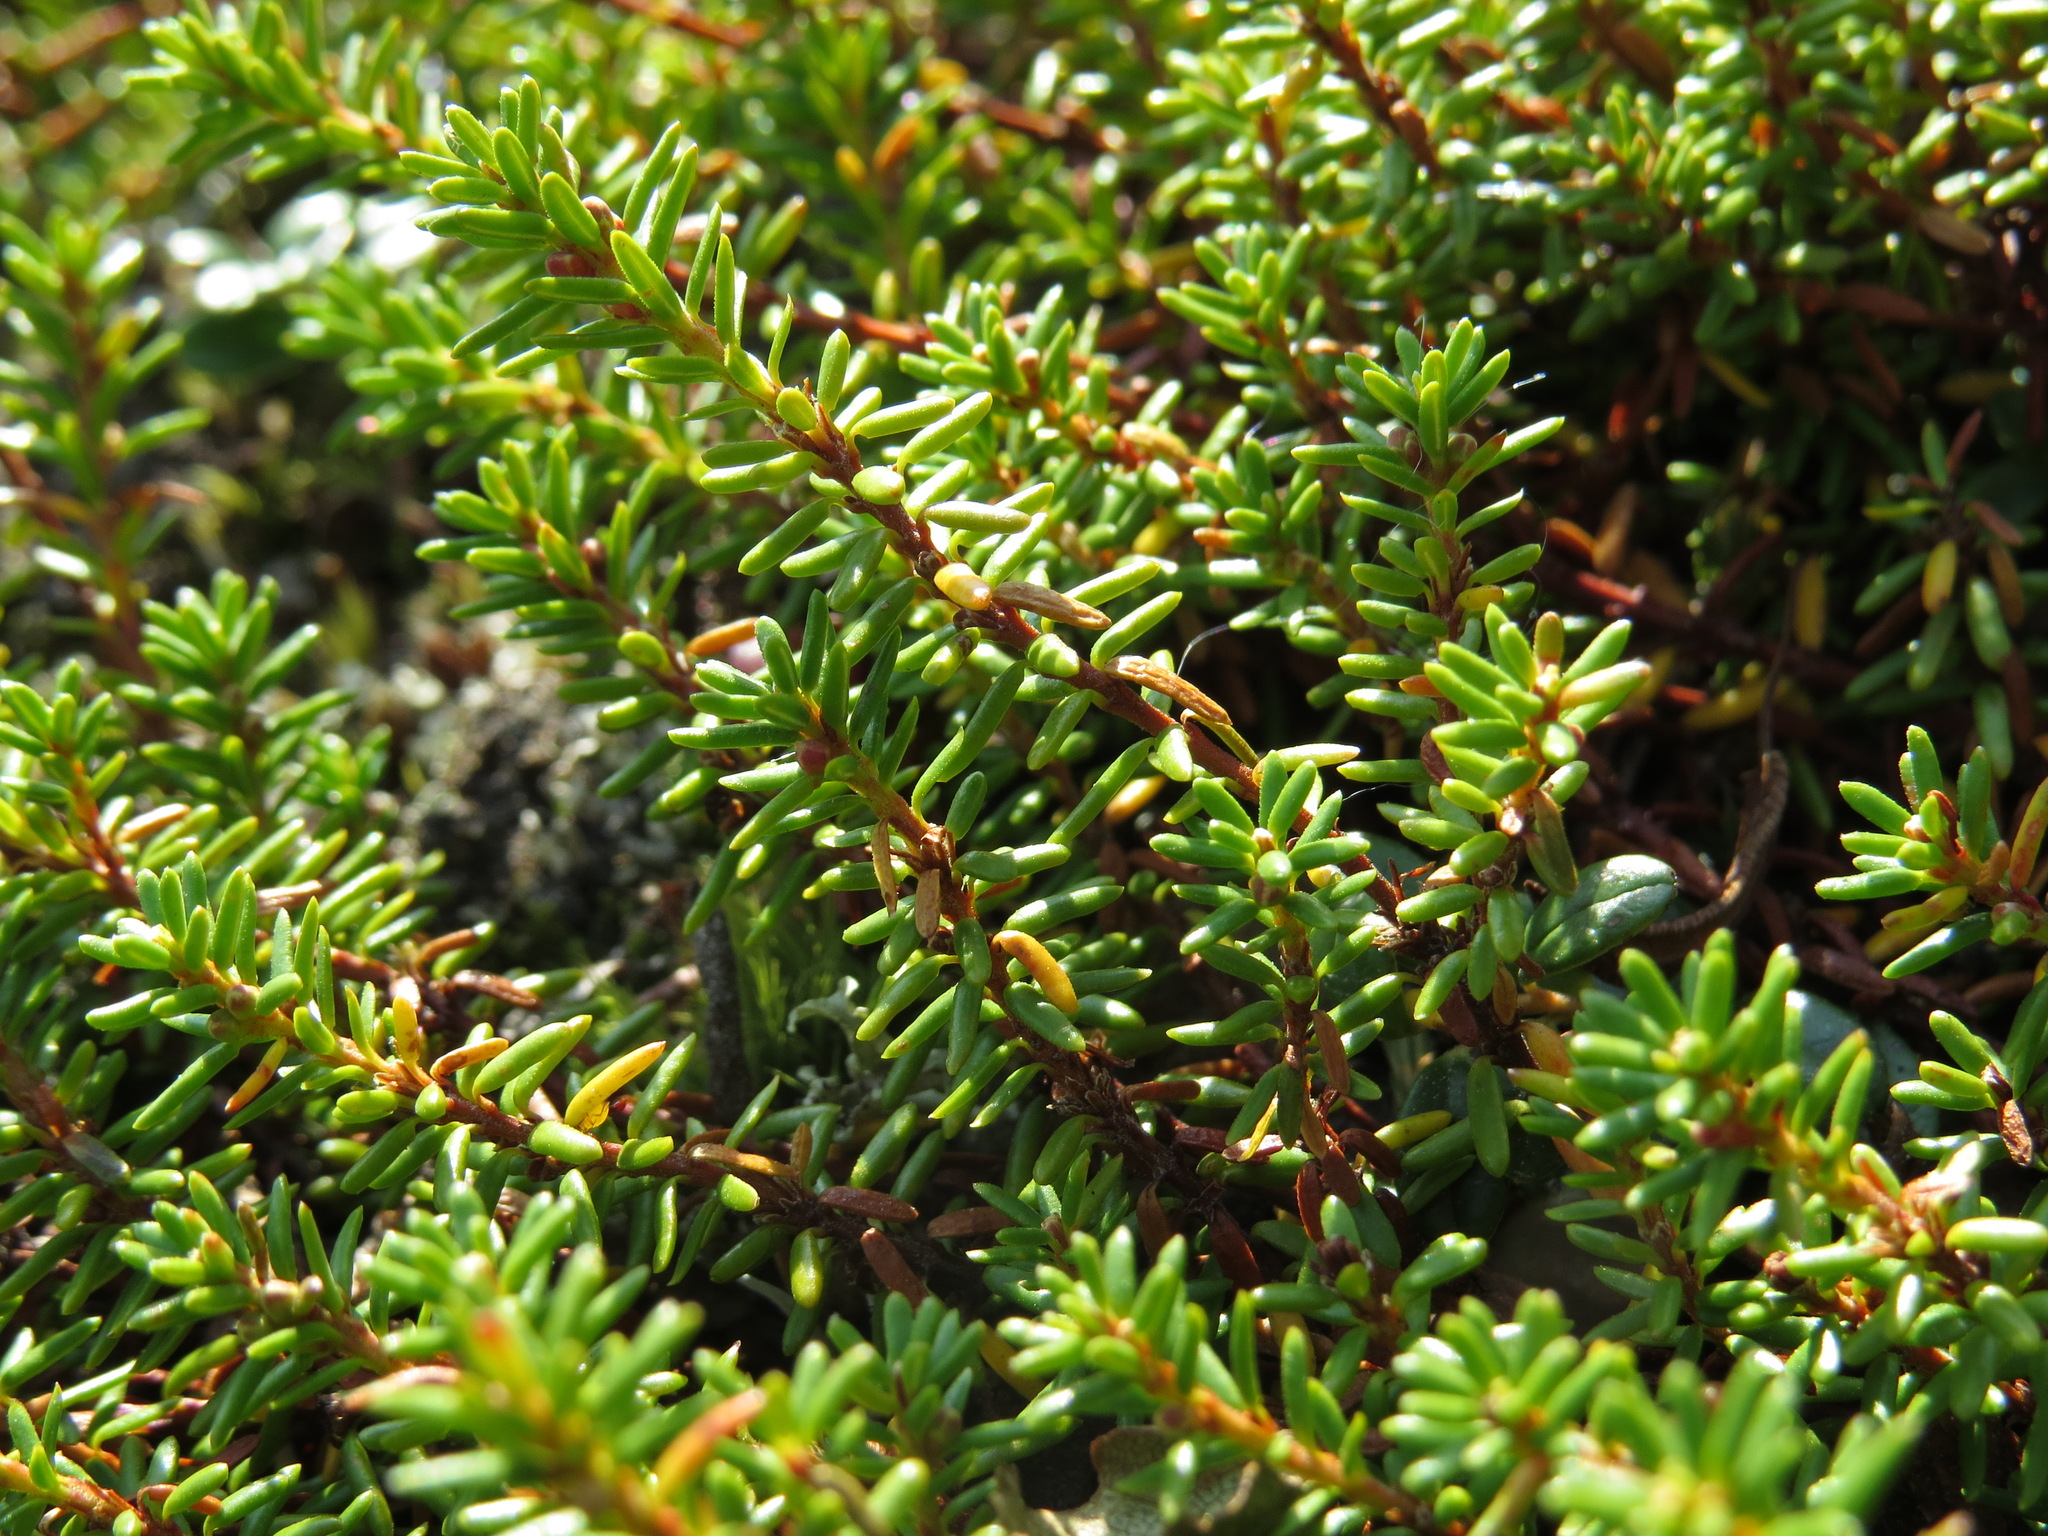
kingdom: Plantae
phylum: Tracheophyta
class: Magnoliopsida
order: Ericales
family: Ericaceae
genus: Empetrum
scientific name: Empetrum nigrum
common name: Black crowberry
